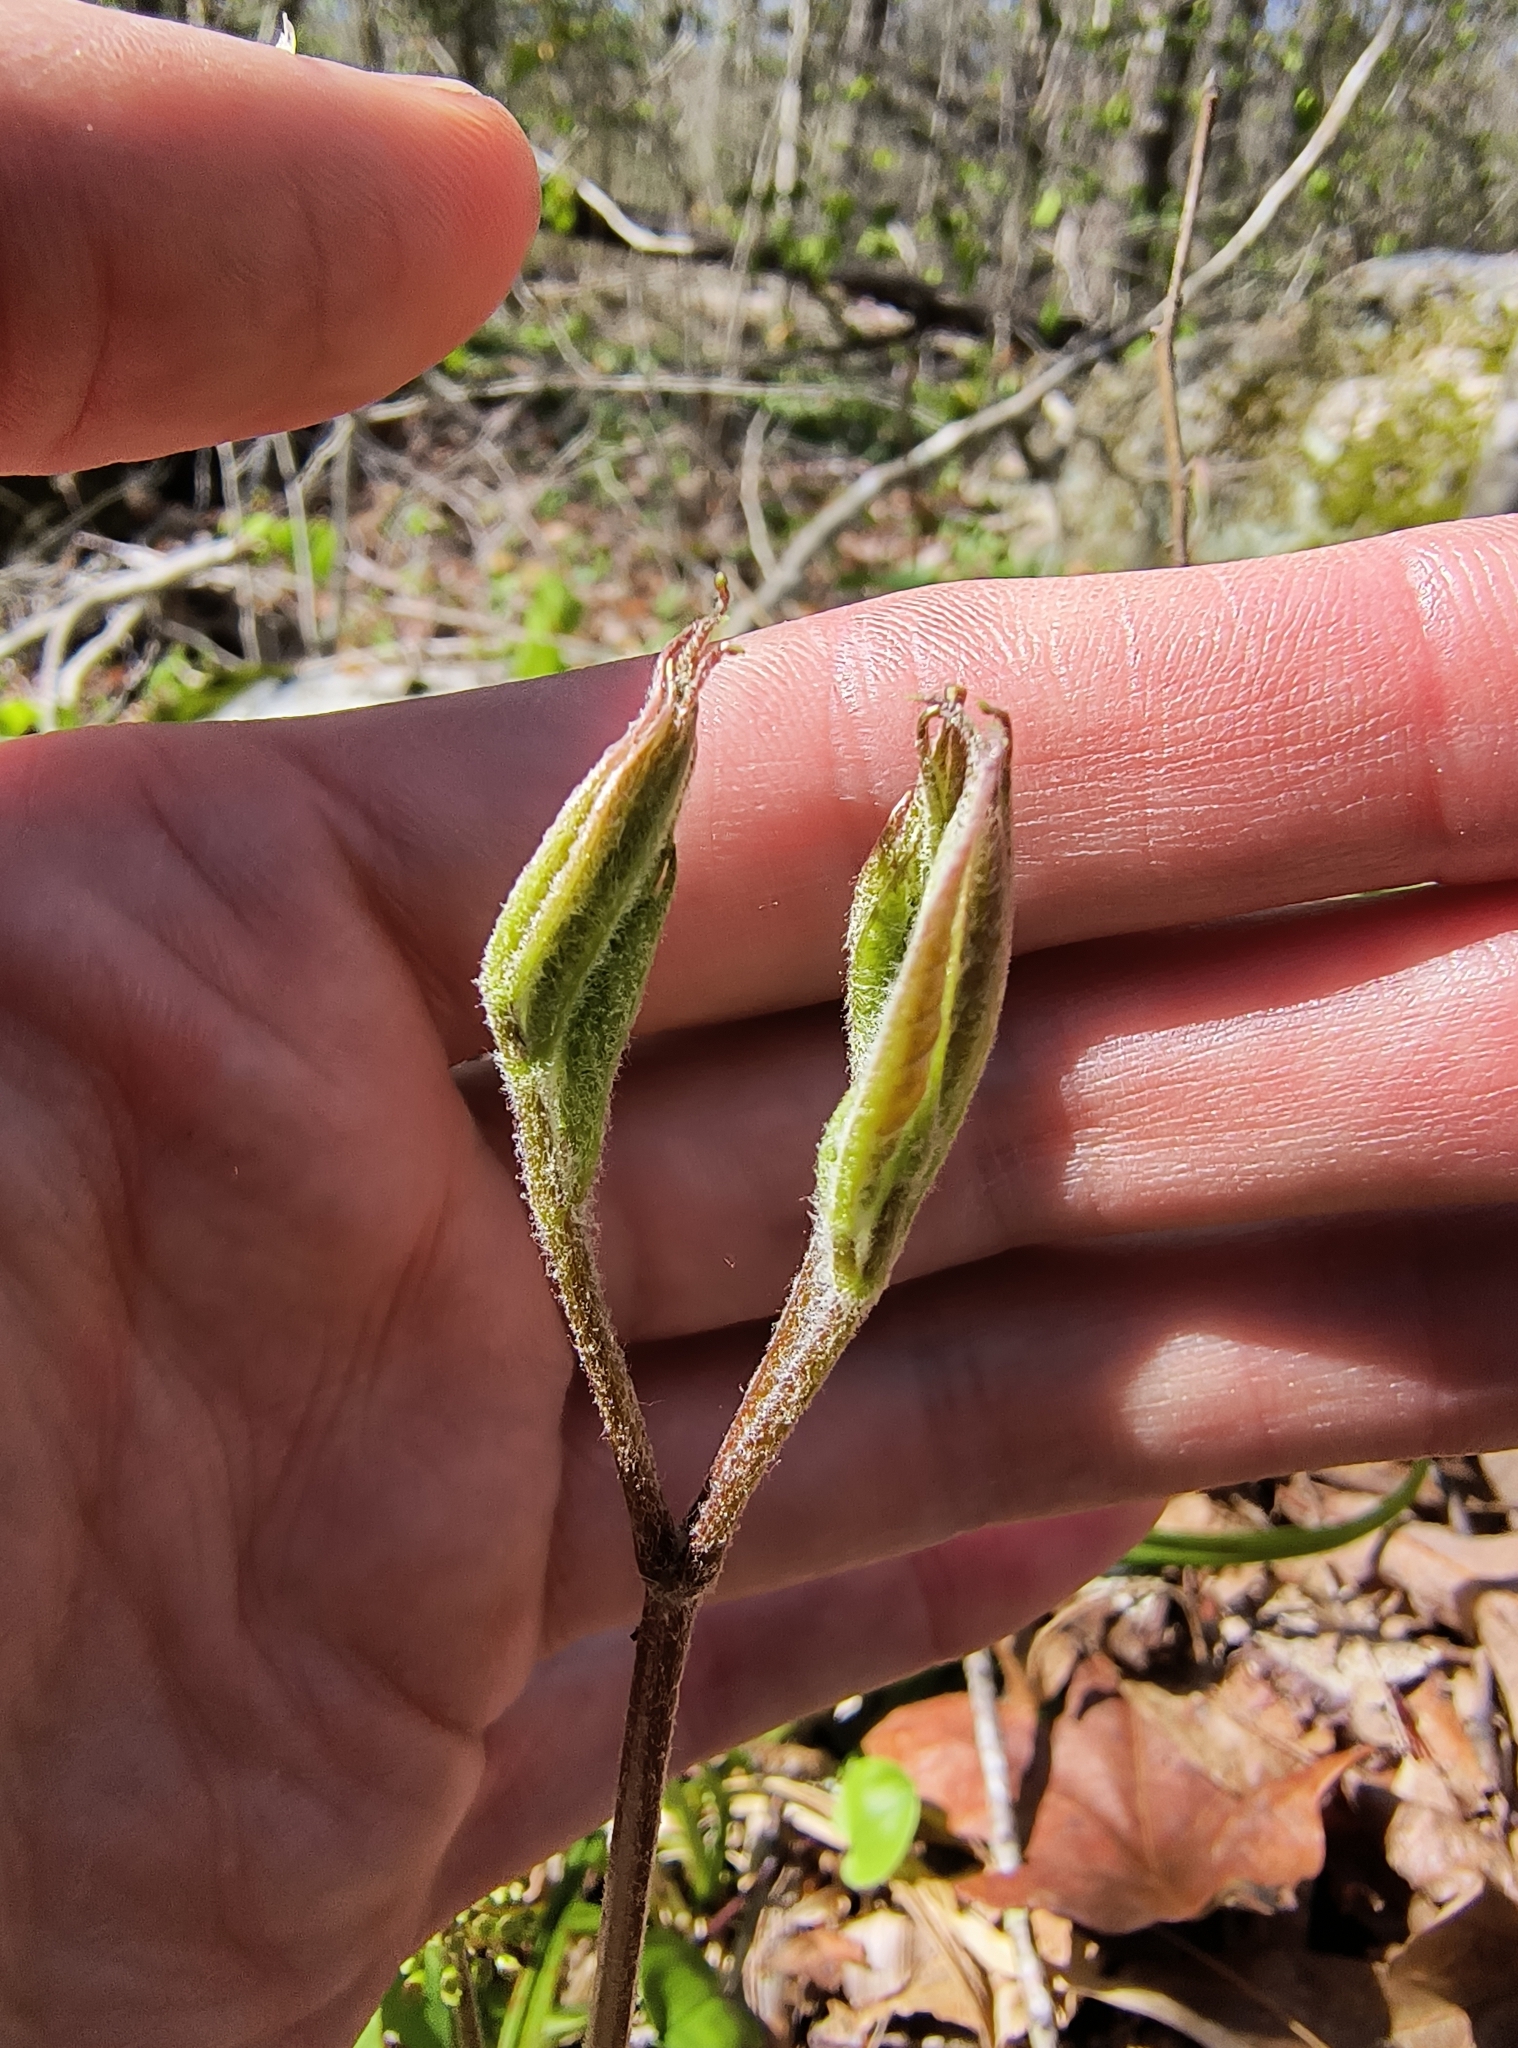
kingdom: Plantae
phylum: Tracheophyta
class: Magnoliopsida
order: Apiales
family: Araliaceae
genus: Aralia
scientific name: Aralia nudicaulis
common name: Wild sarsaparilla
